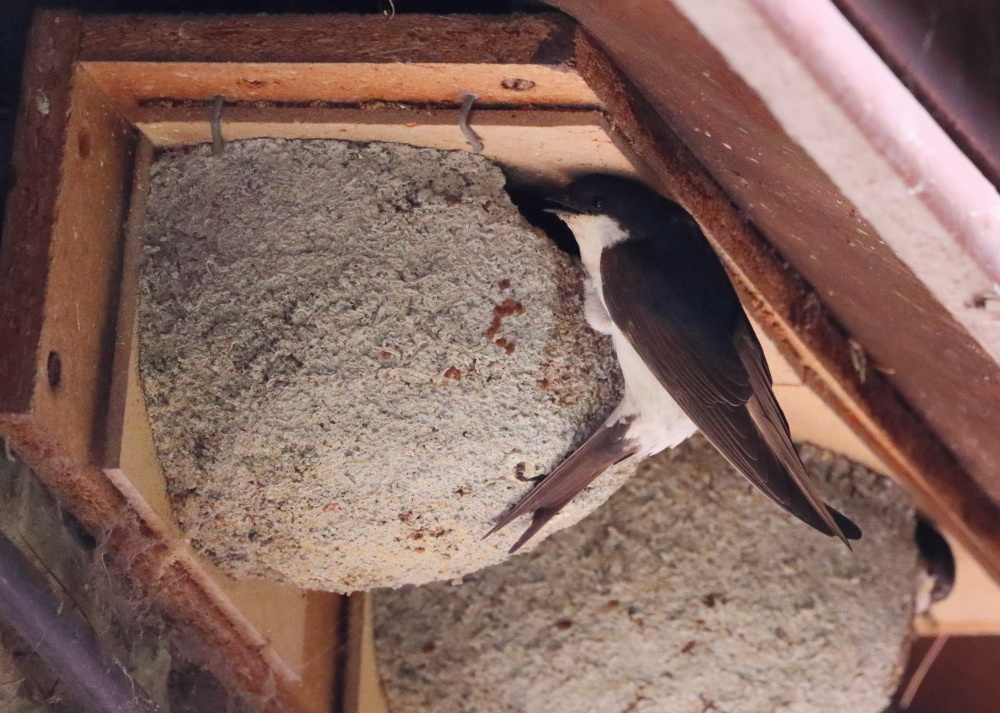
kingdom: Animalia
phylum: Chordata
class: Aves
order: Passeriformes
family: Hirundinidae
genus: Delichon
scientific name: Delichon urbicum
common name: Common house martin
